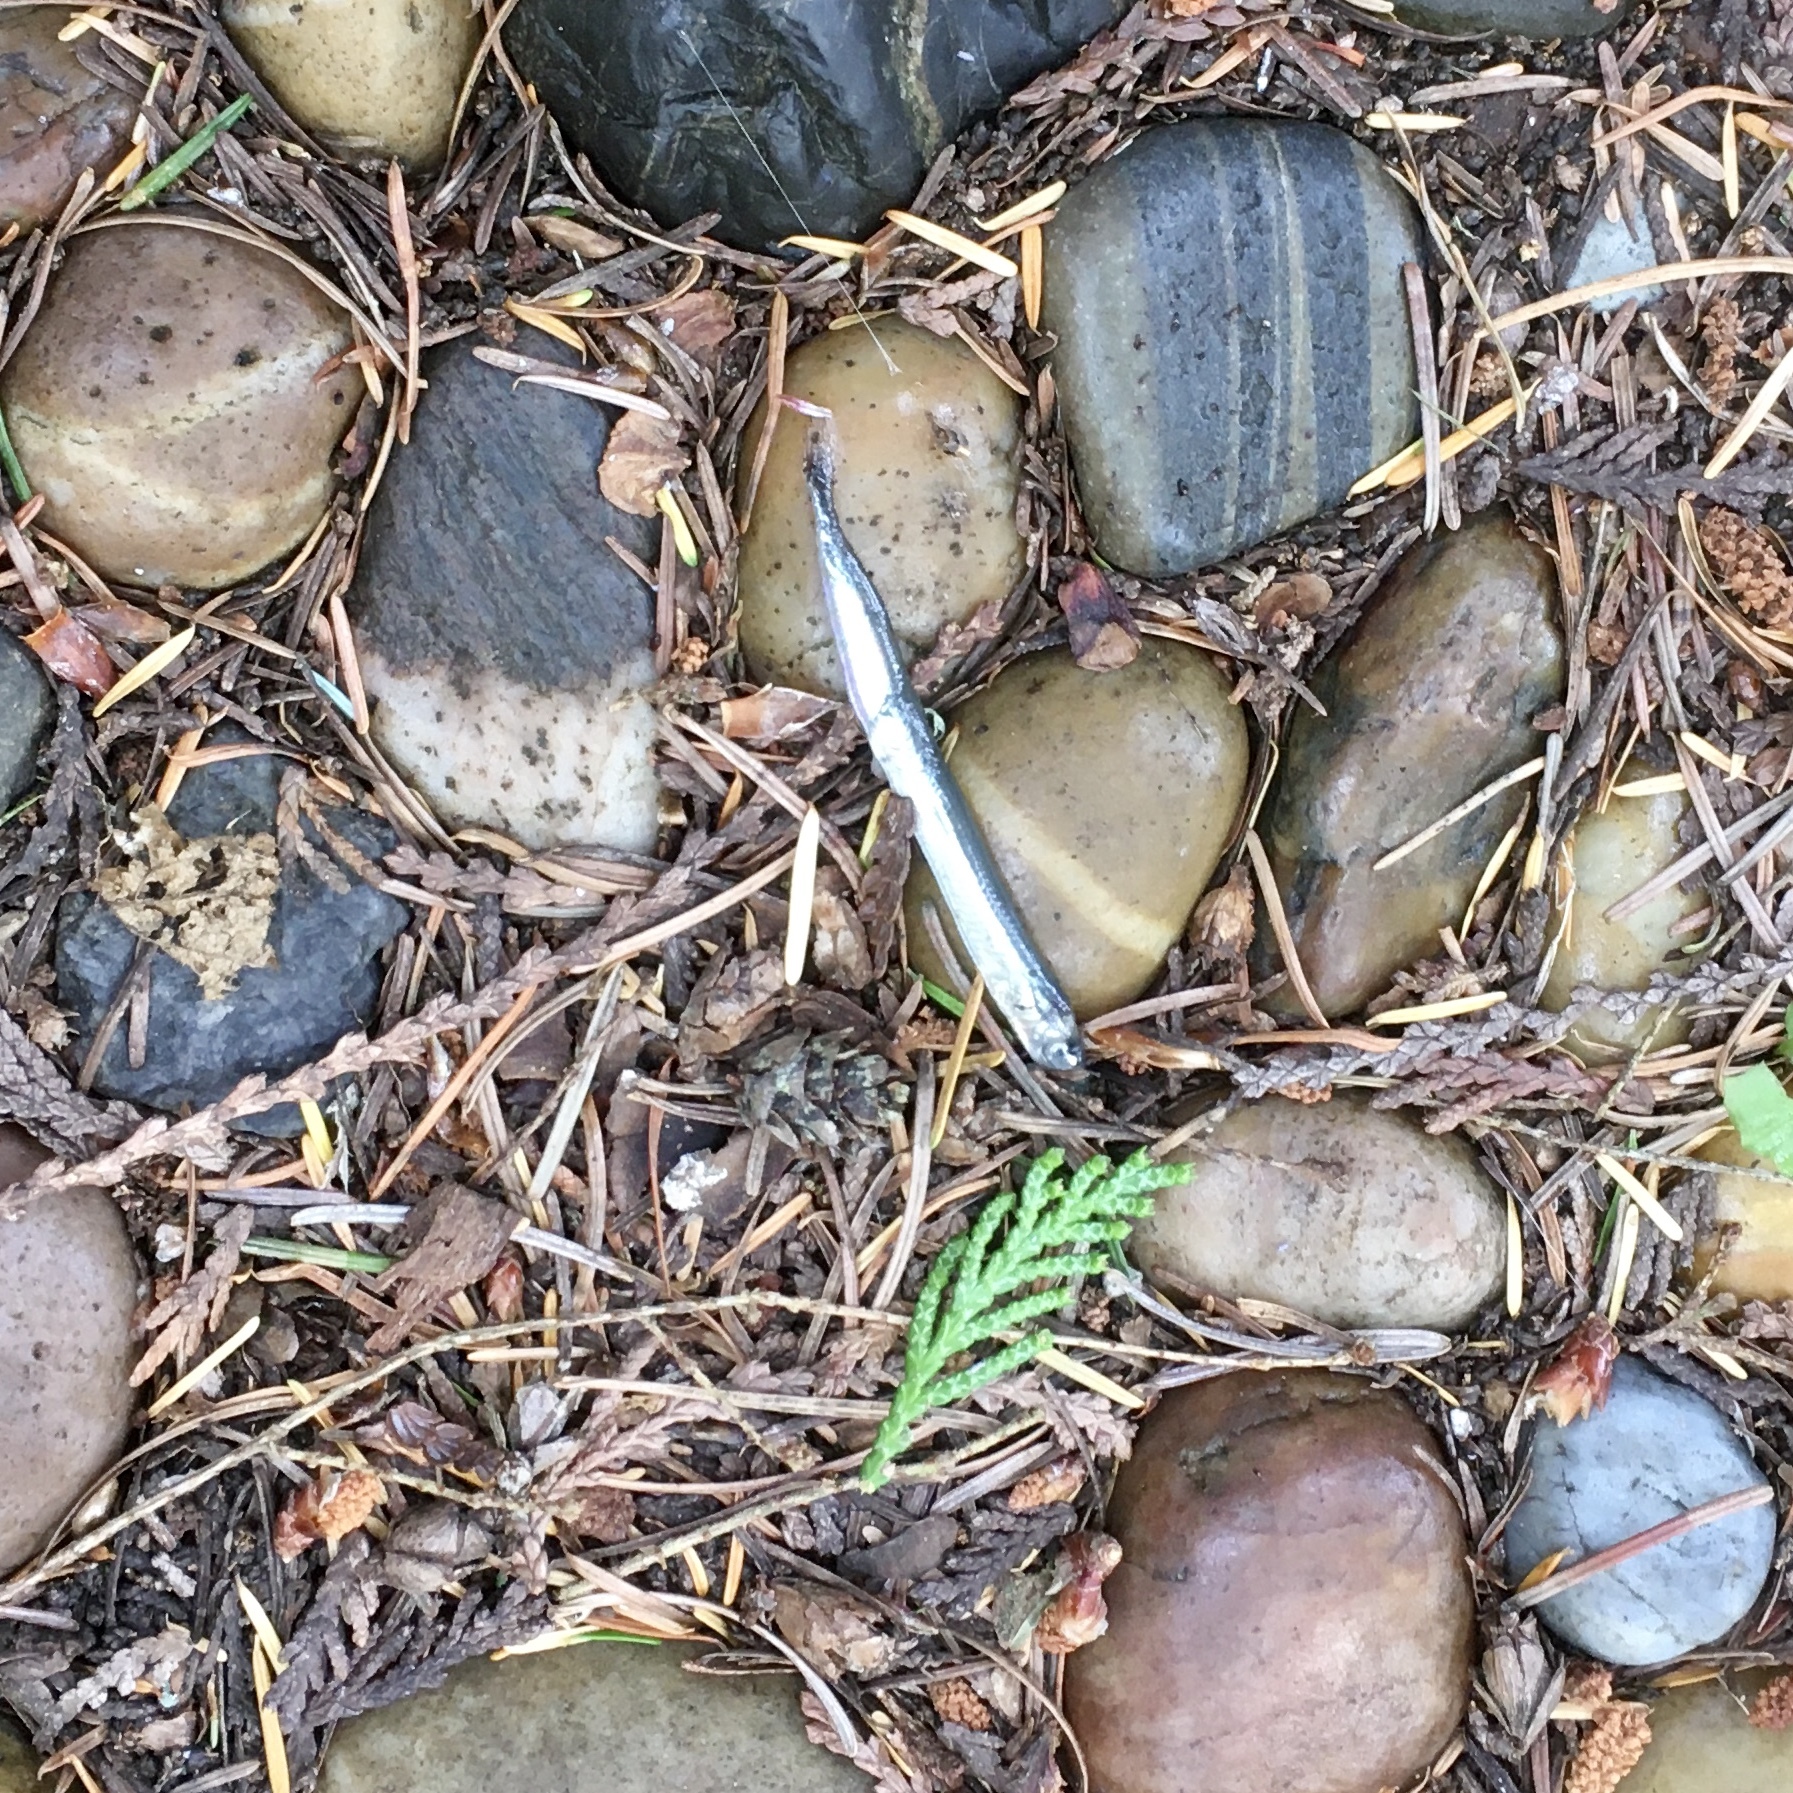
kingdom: Animalia
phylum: Chordata
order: Perciformes
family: Ammodytidae
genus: Ammodytes
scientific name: Ammodytes personatus
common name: Japanese sand lance
